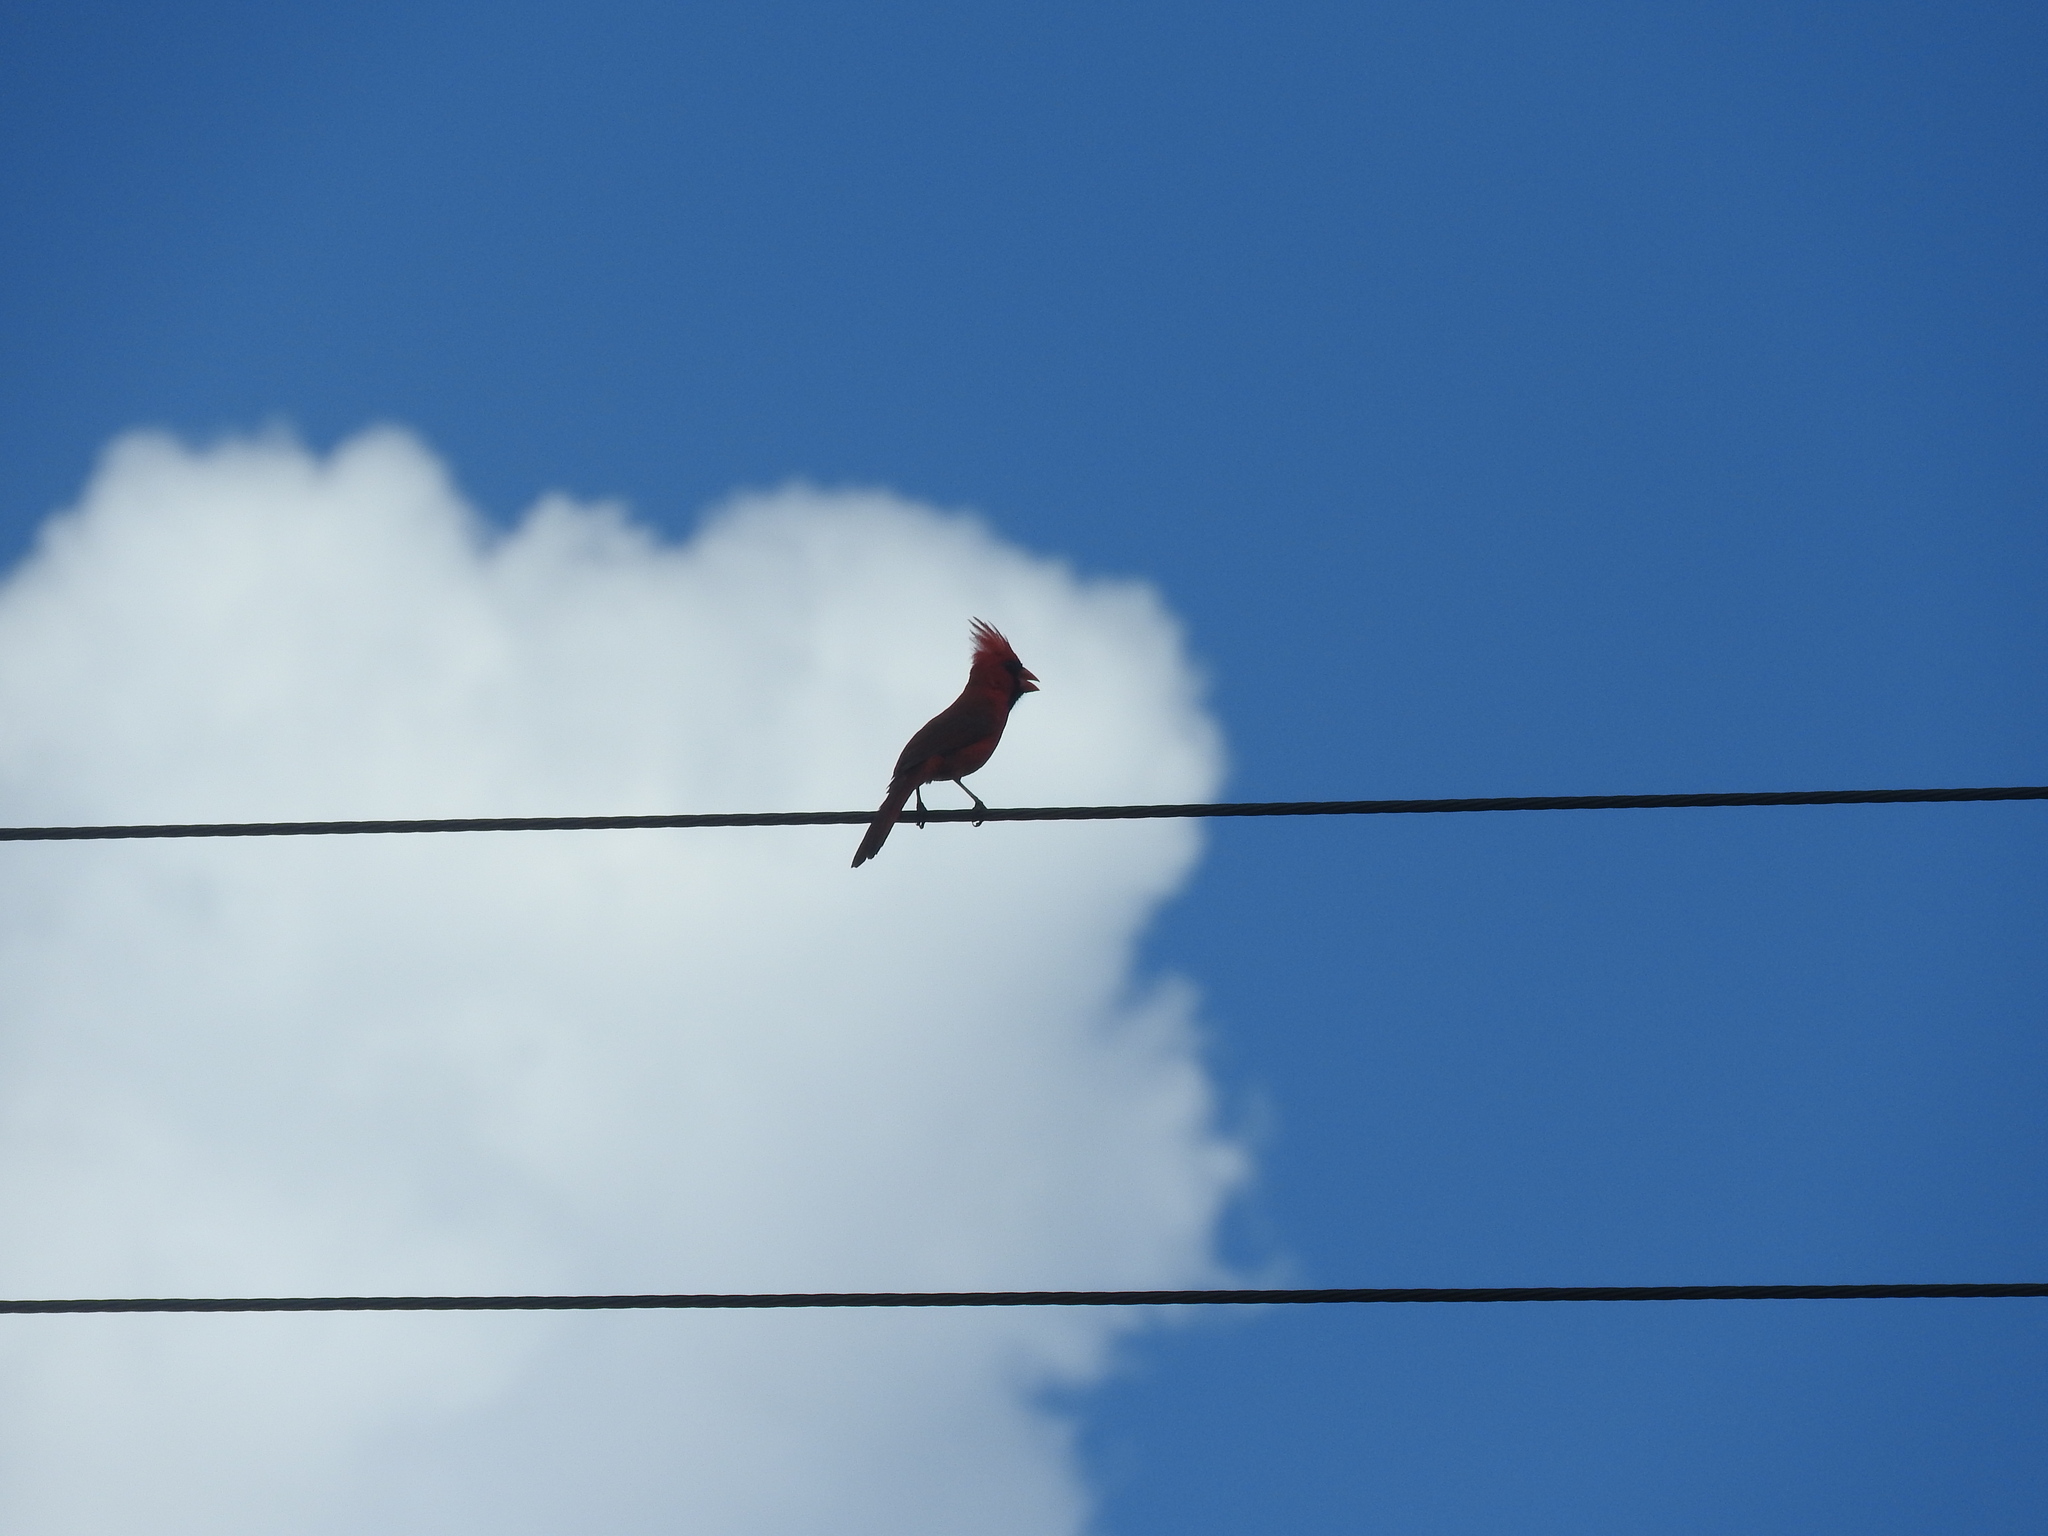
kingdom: Animalia
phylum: Chordata
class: Aves
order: Passeriformes
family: Cardinalidae
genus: Cardinalis
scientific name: Cardinalis cardinalis
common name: Northern cardinal
